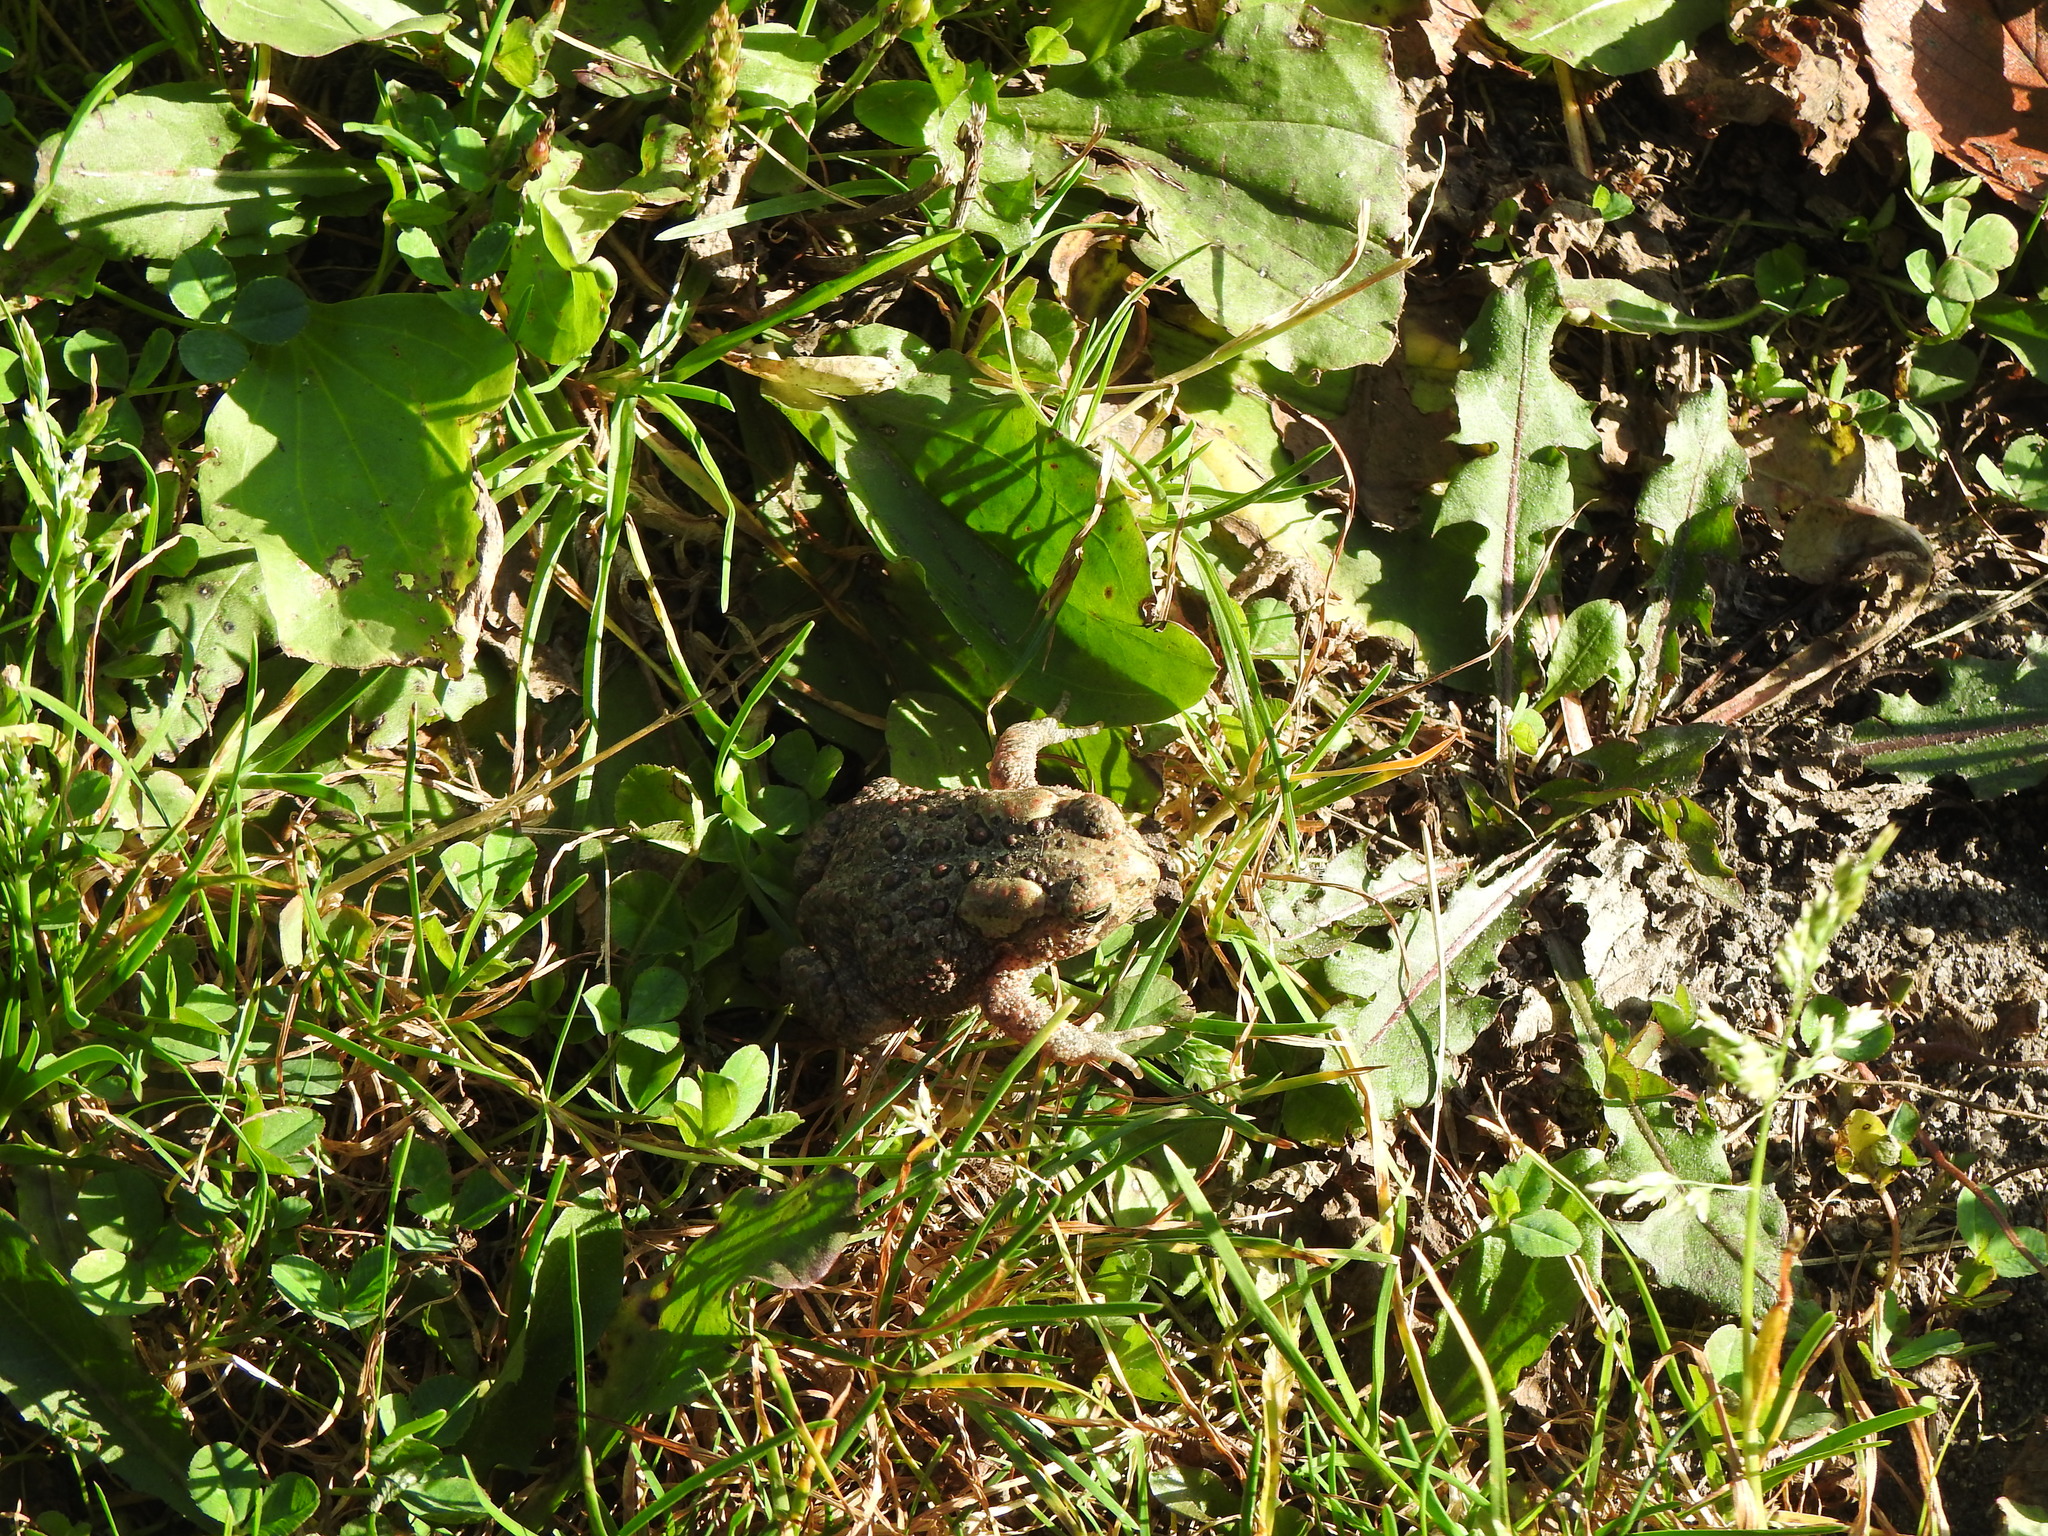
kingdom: Animalia
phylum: Chordata
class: Amphibia
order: Anura
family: Bufonidae
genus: Anaxyrus
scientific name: Anaxyrus americanus
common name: American toad
